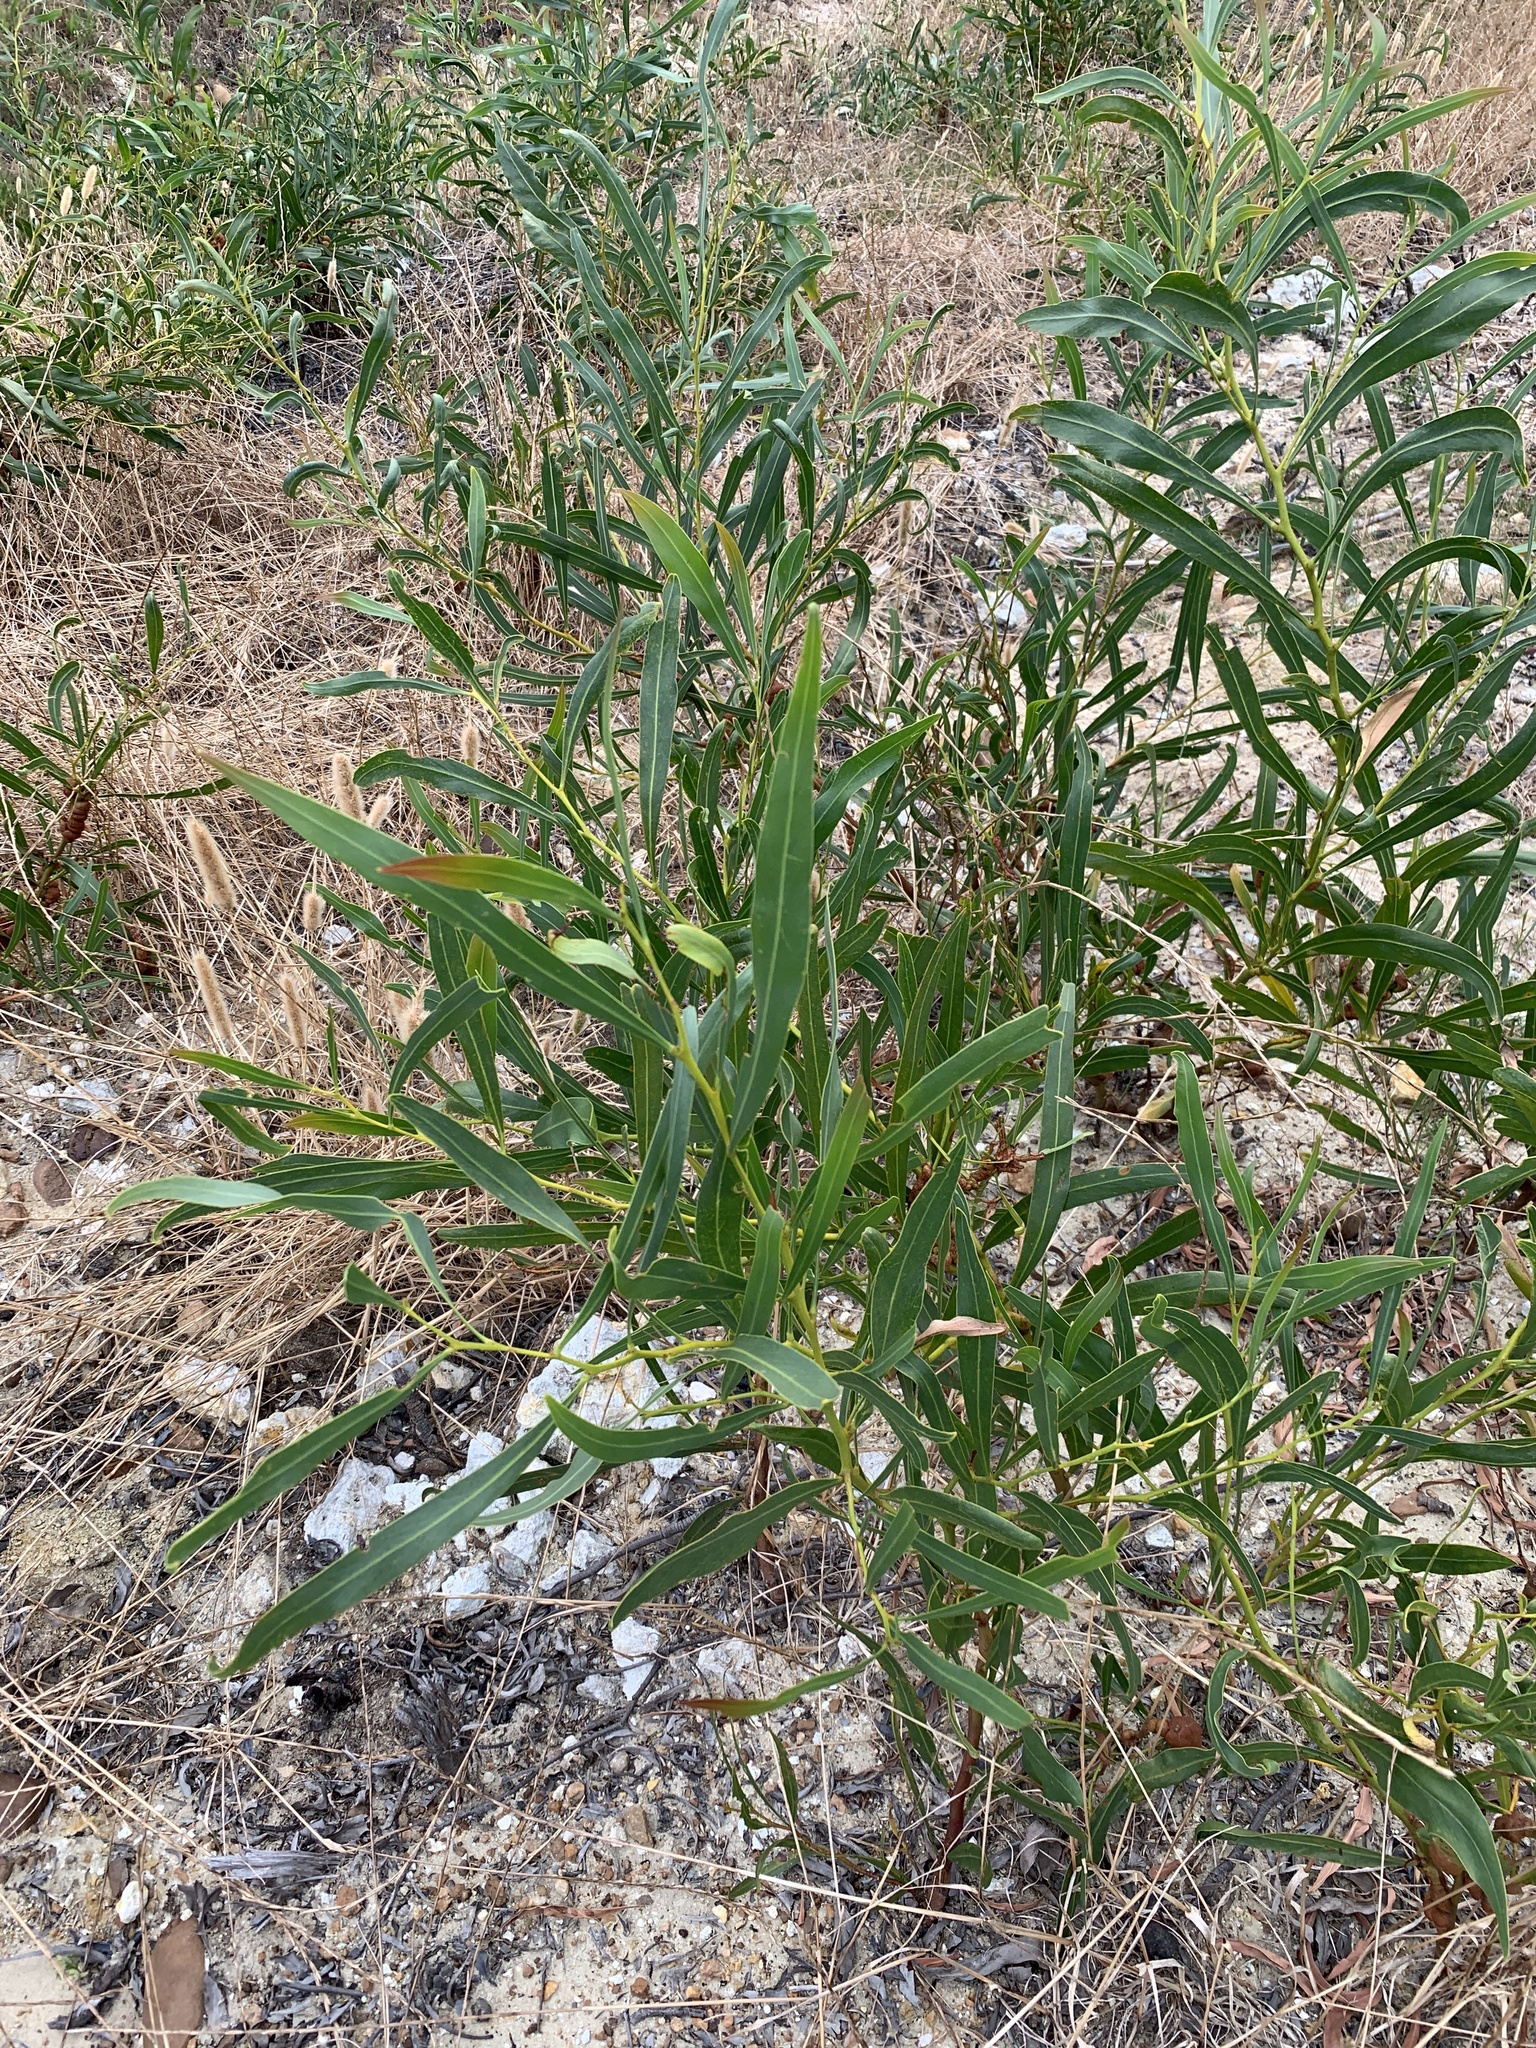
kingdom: Plantae
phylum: Tracheophyta
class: Magnoliopsida
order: Fabales
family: Fabaceae
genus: Acacia
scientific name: Acacia saligna
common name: Orange wattle
